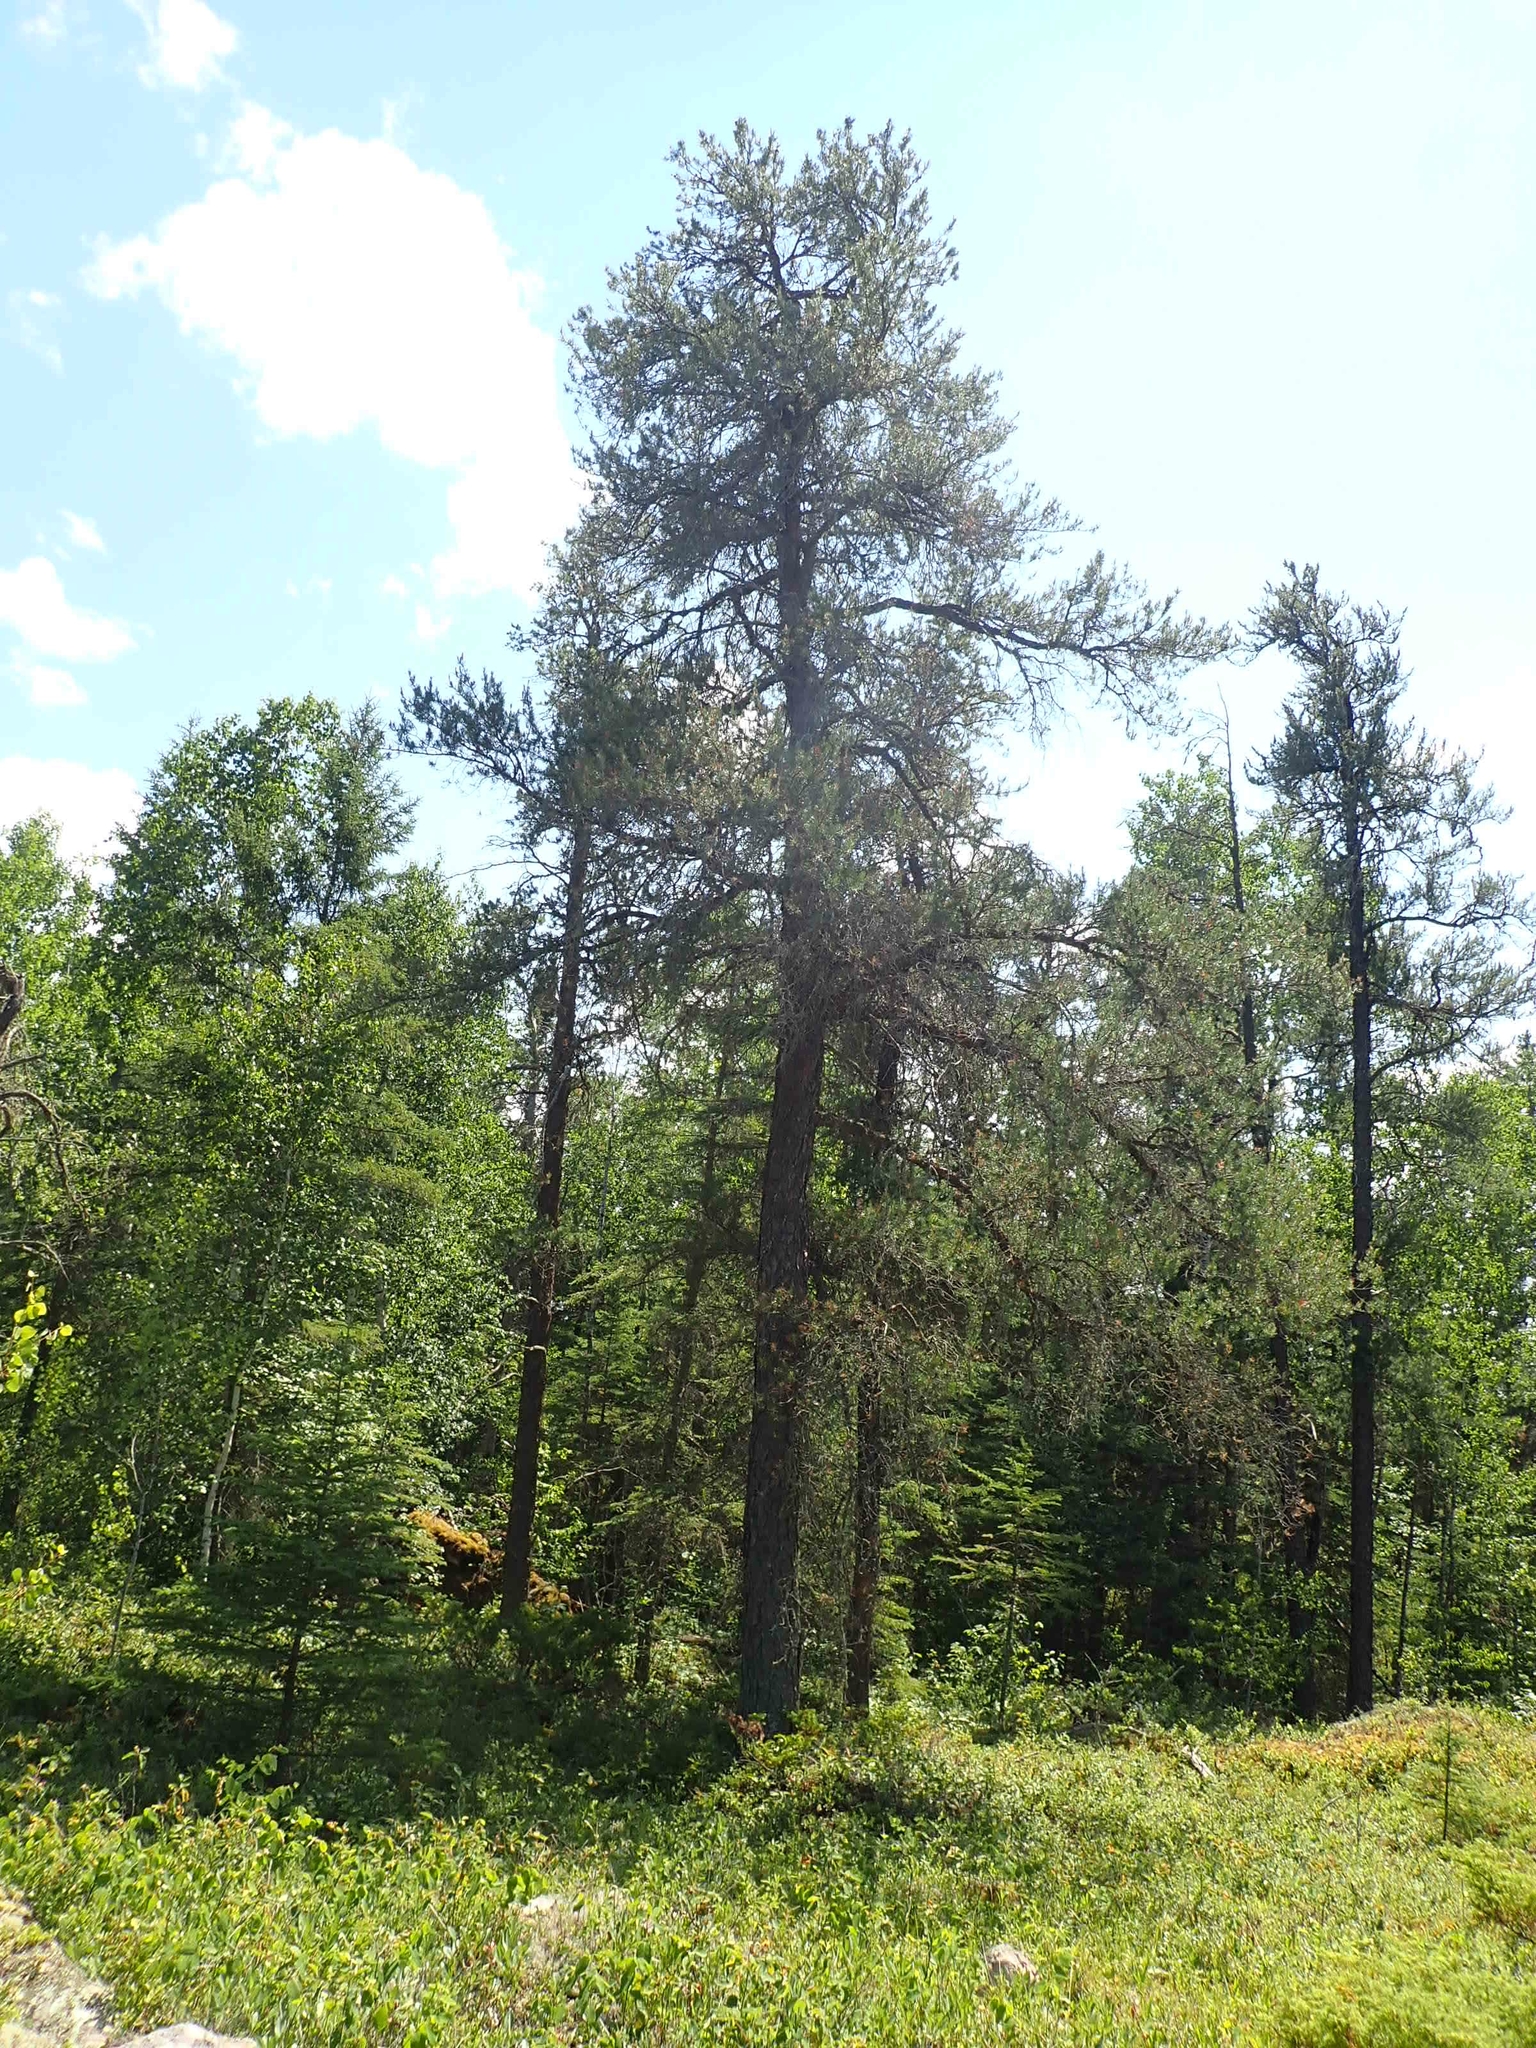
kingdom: Plantae
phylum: Tracheophyta
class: Pinopsida
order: Pinales
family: Pinaceae
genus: Pinus
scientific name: Pinus banksiana
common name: Jack pine
